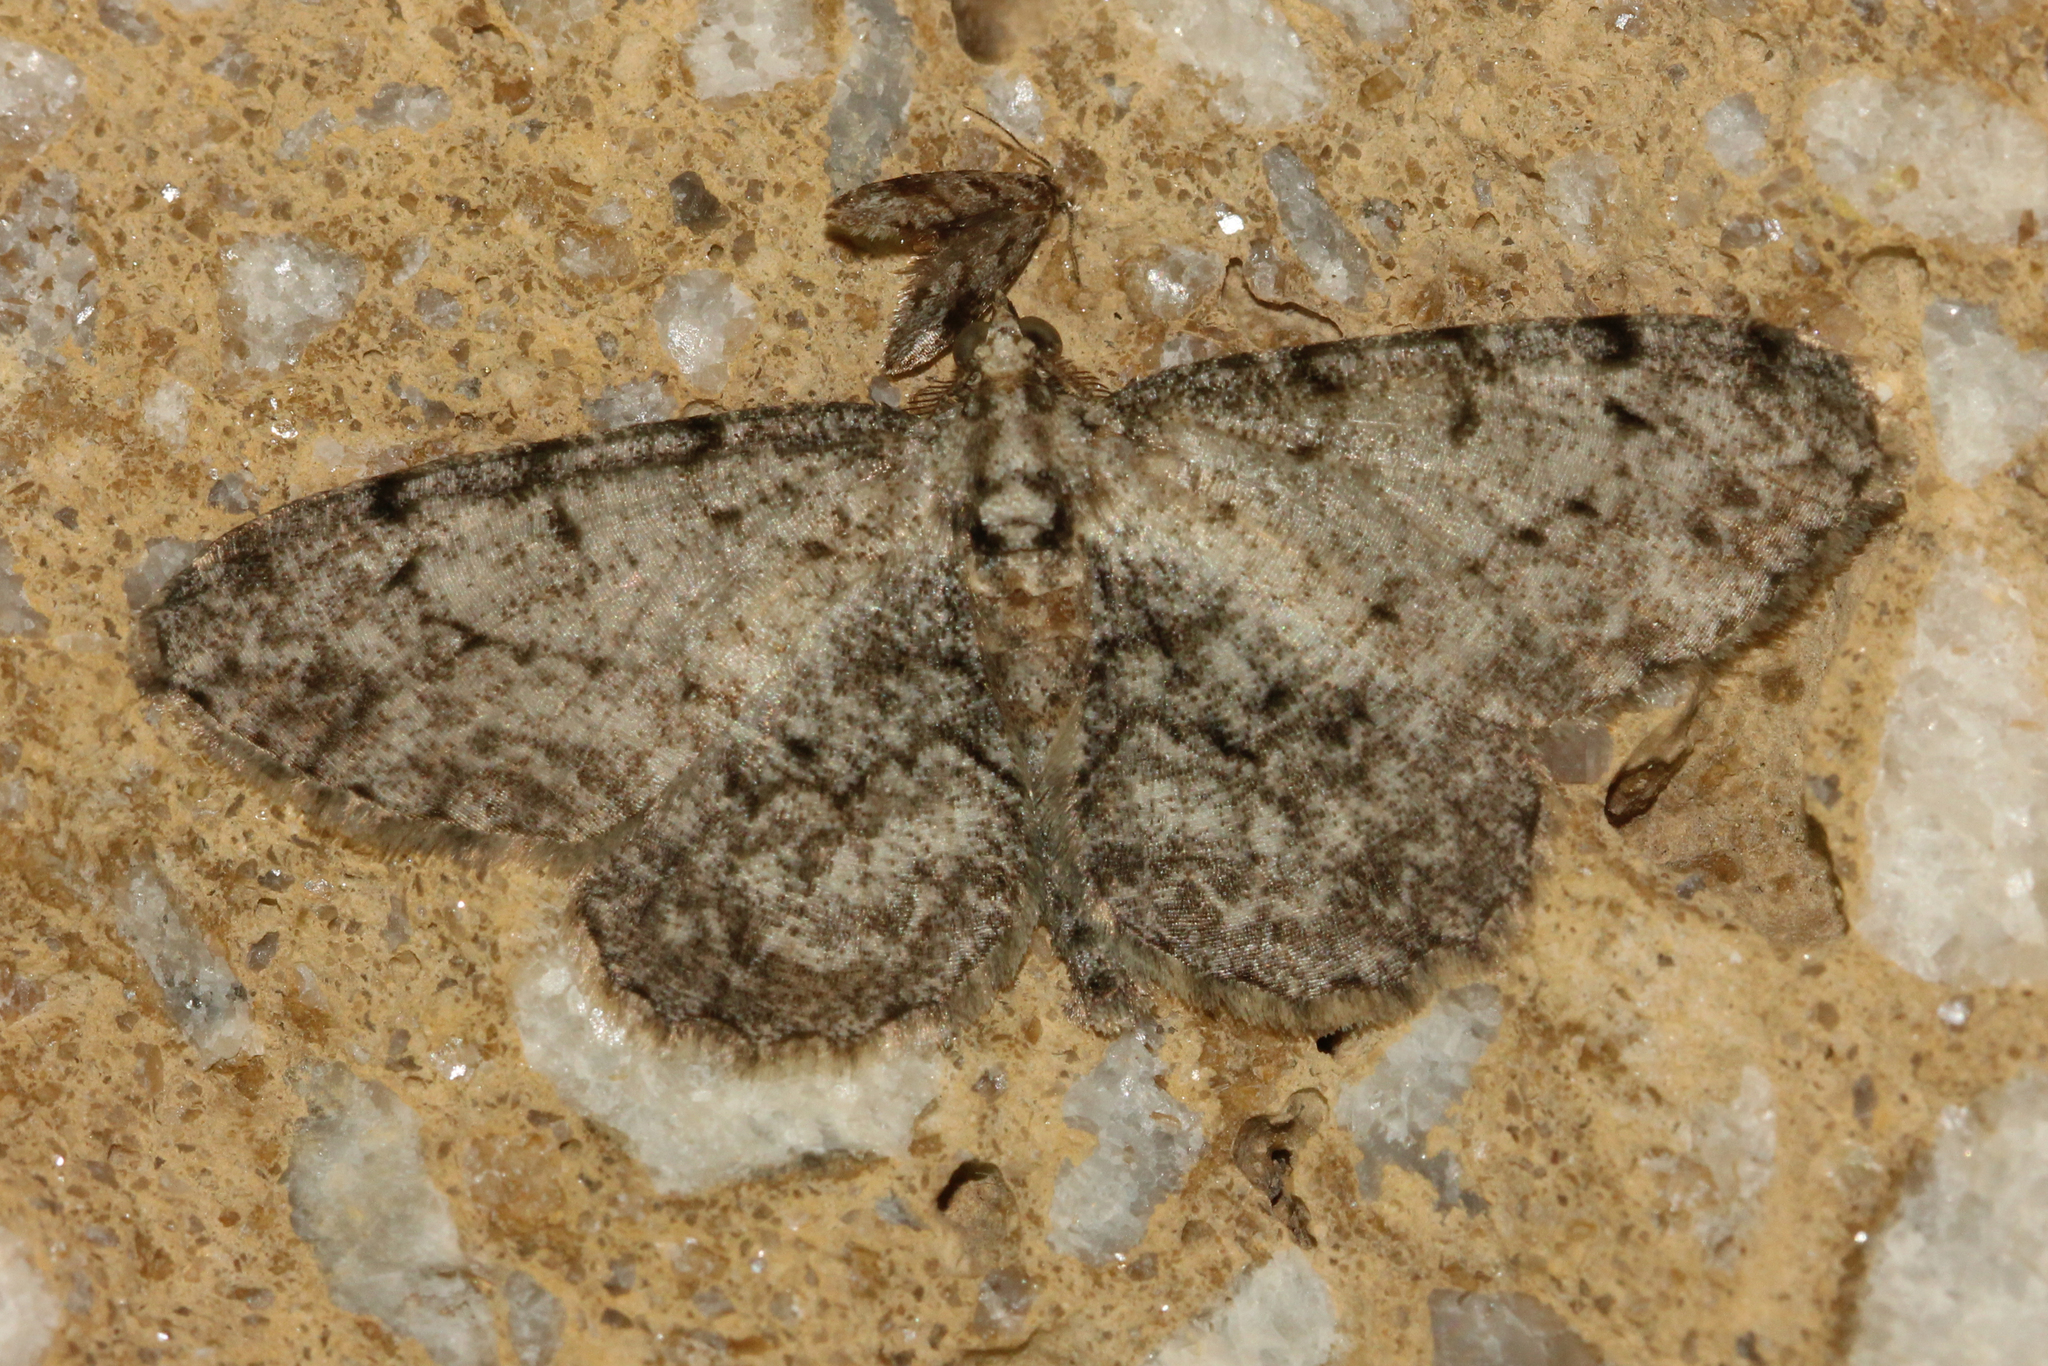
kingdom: Animalia
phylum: Arthropoda
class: Insecta
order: Lepidoptera
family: Geometridae
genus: Protoboarmia
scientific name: Protoboarmia porcelaria
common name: Porcelain gray
